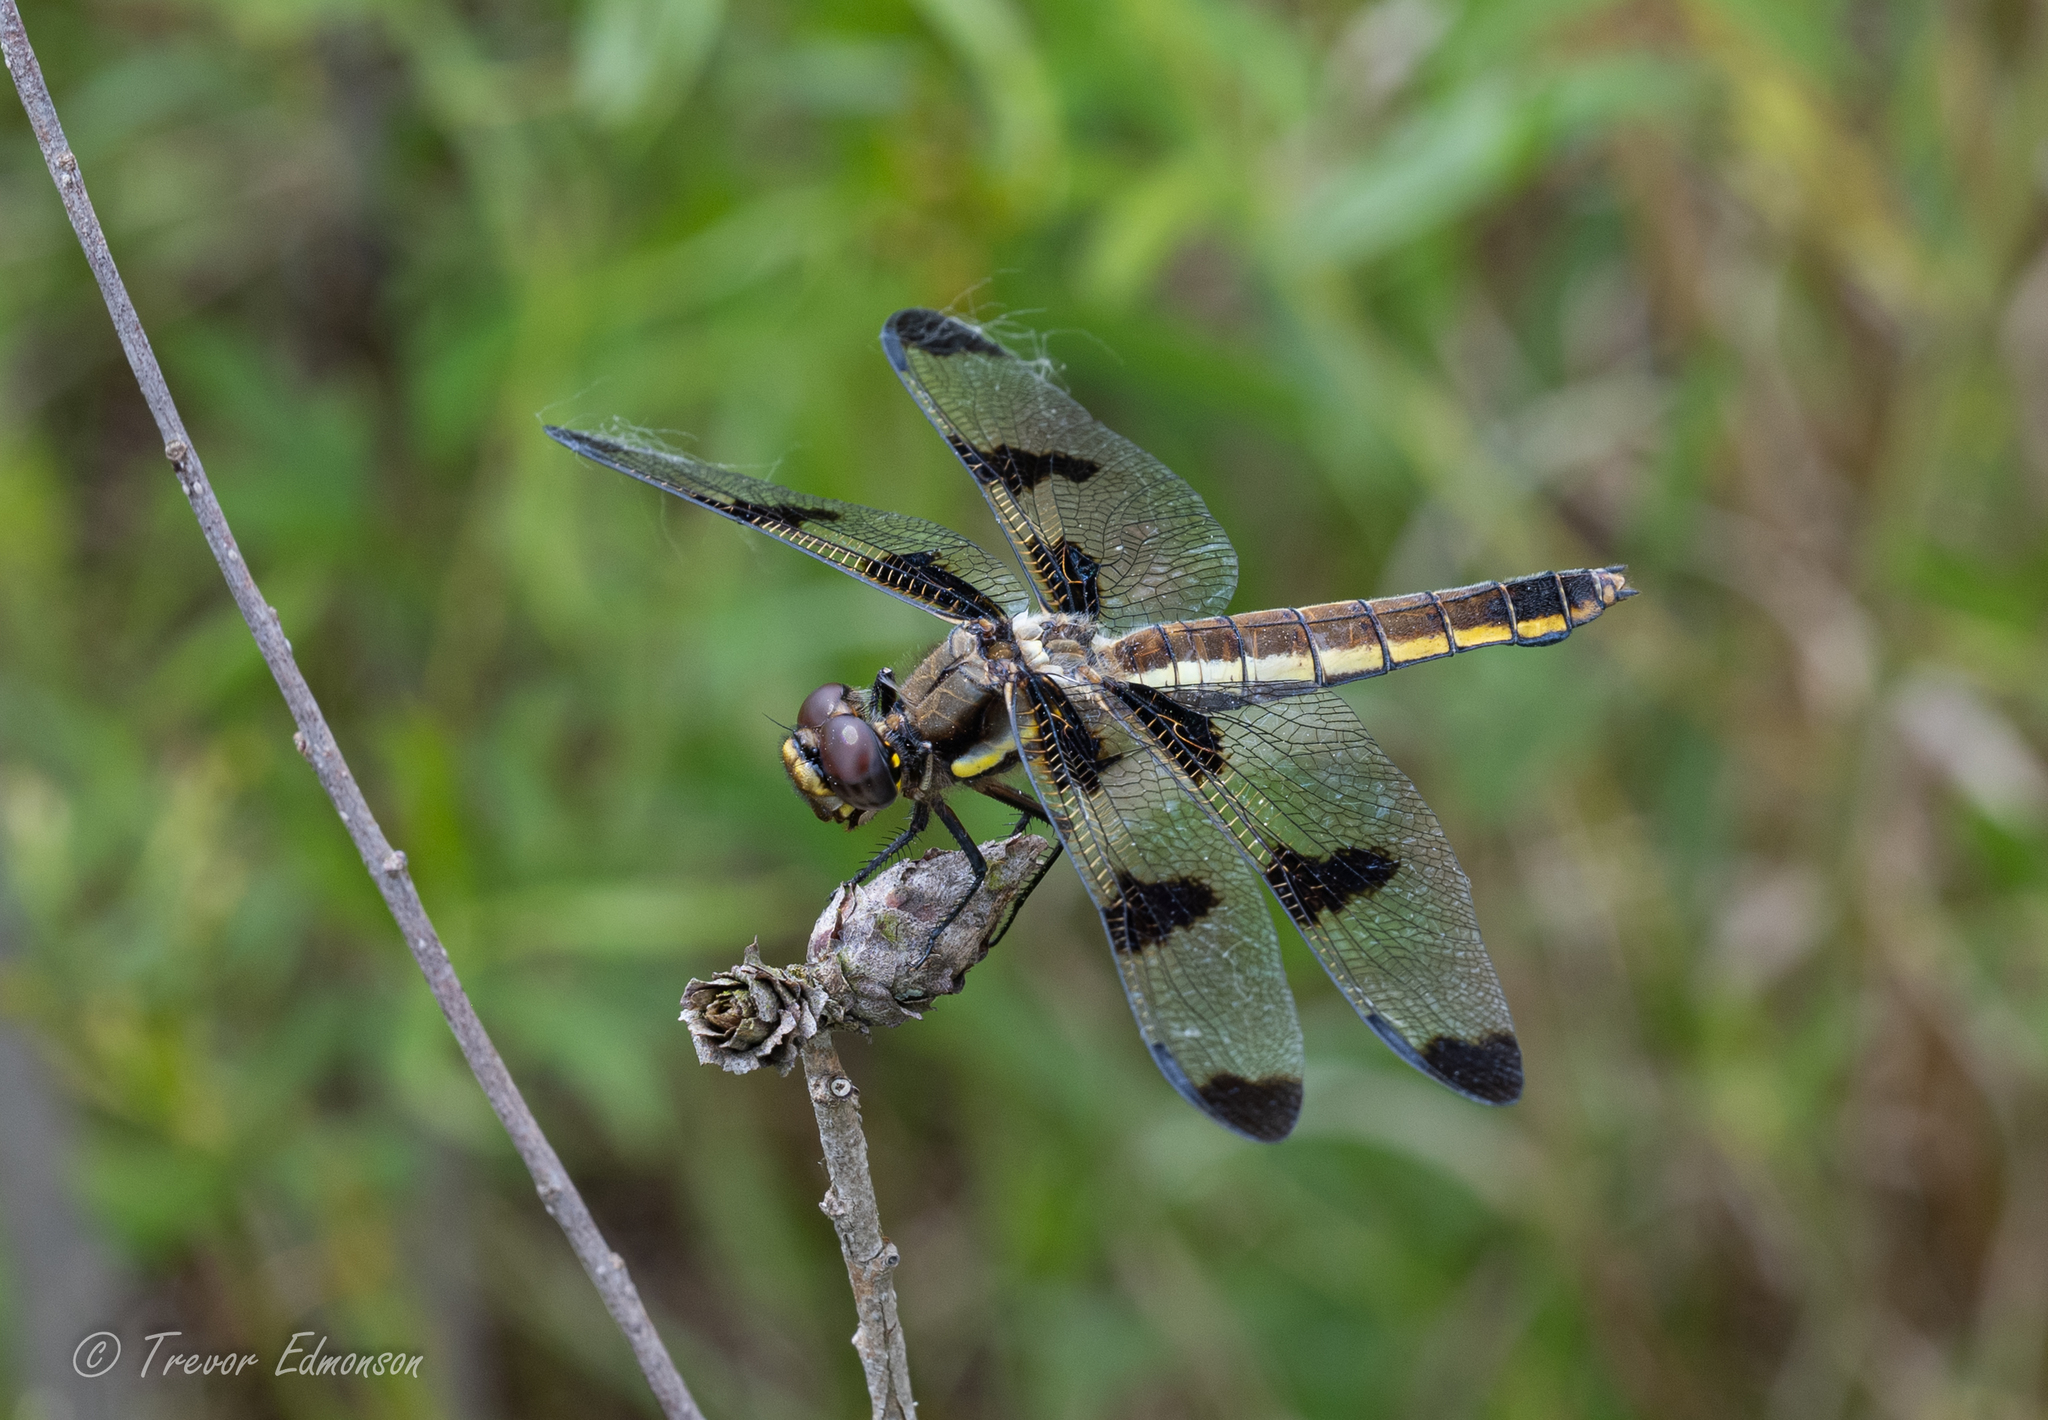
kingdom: Animalia
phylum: Arthropoda
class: Insecta
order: Odonata
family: Libellulidae
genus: Libellula
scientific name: Libellula pulchella
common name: Twelve-spotted skimmer
